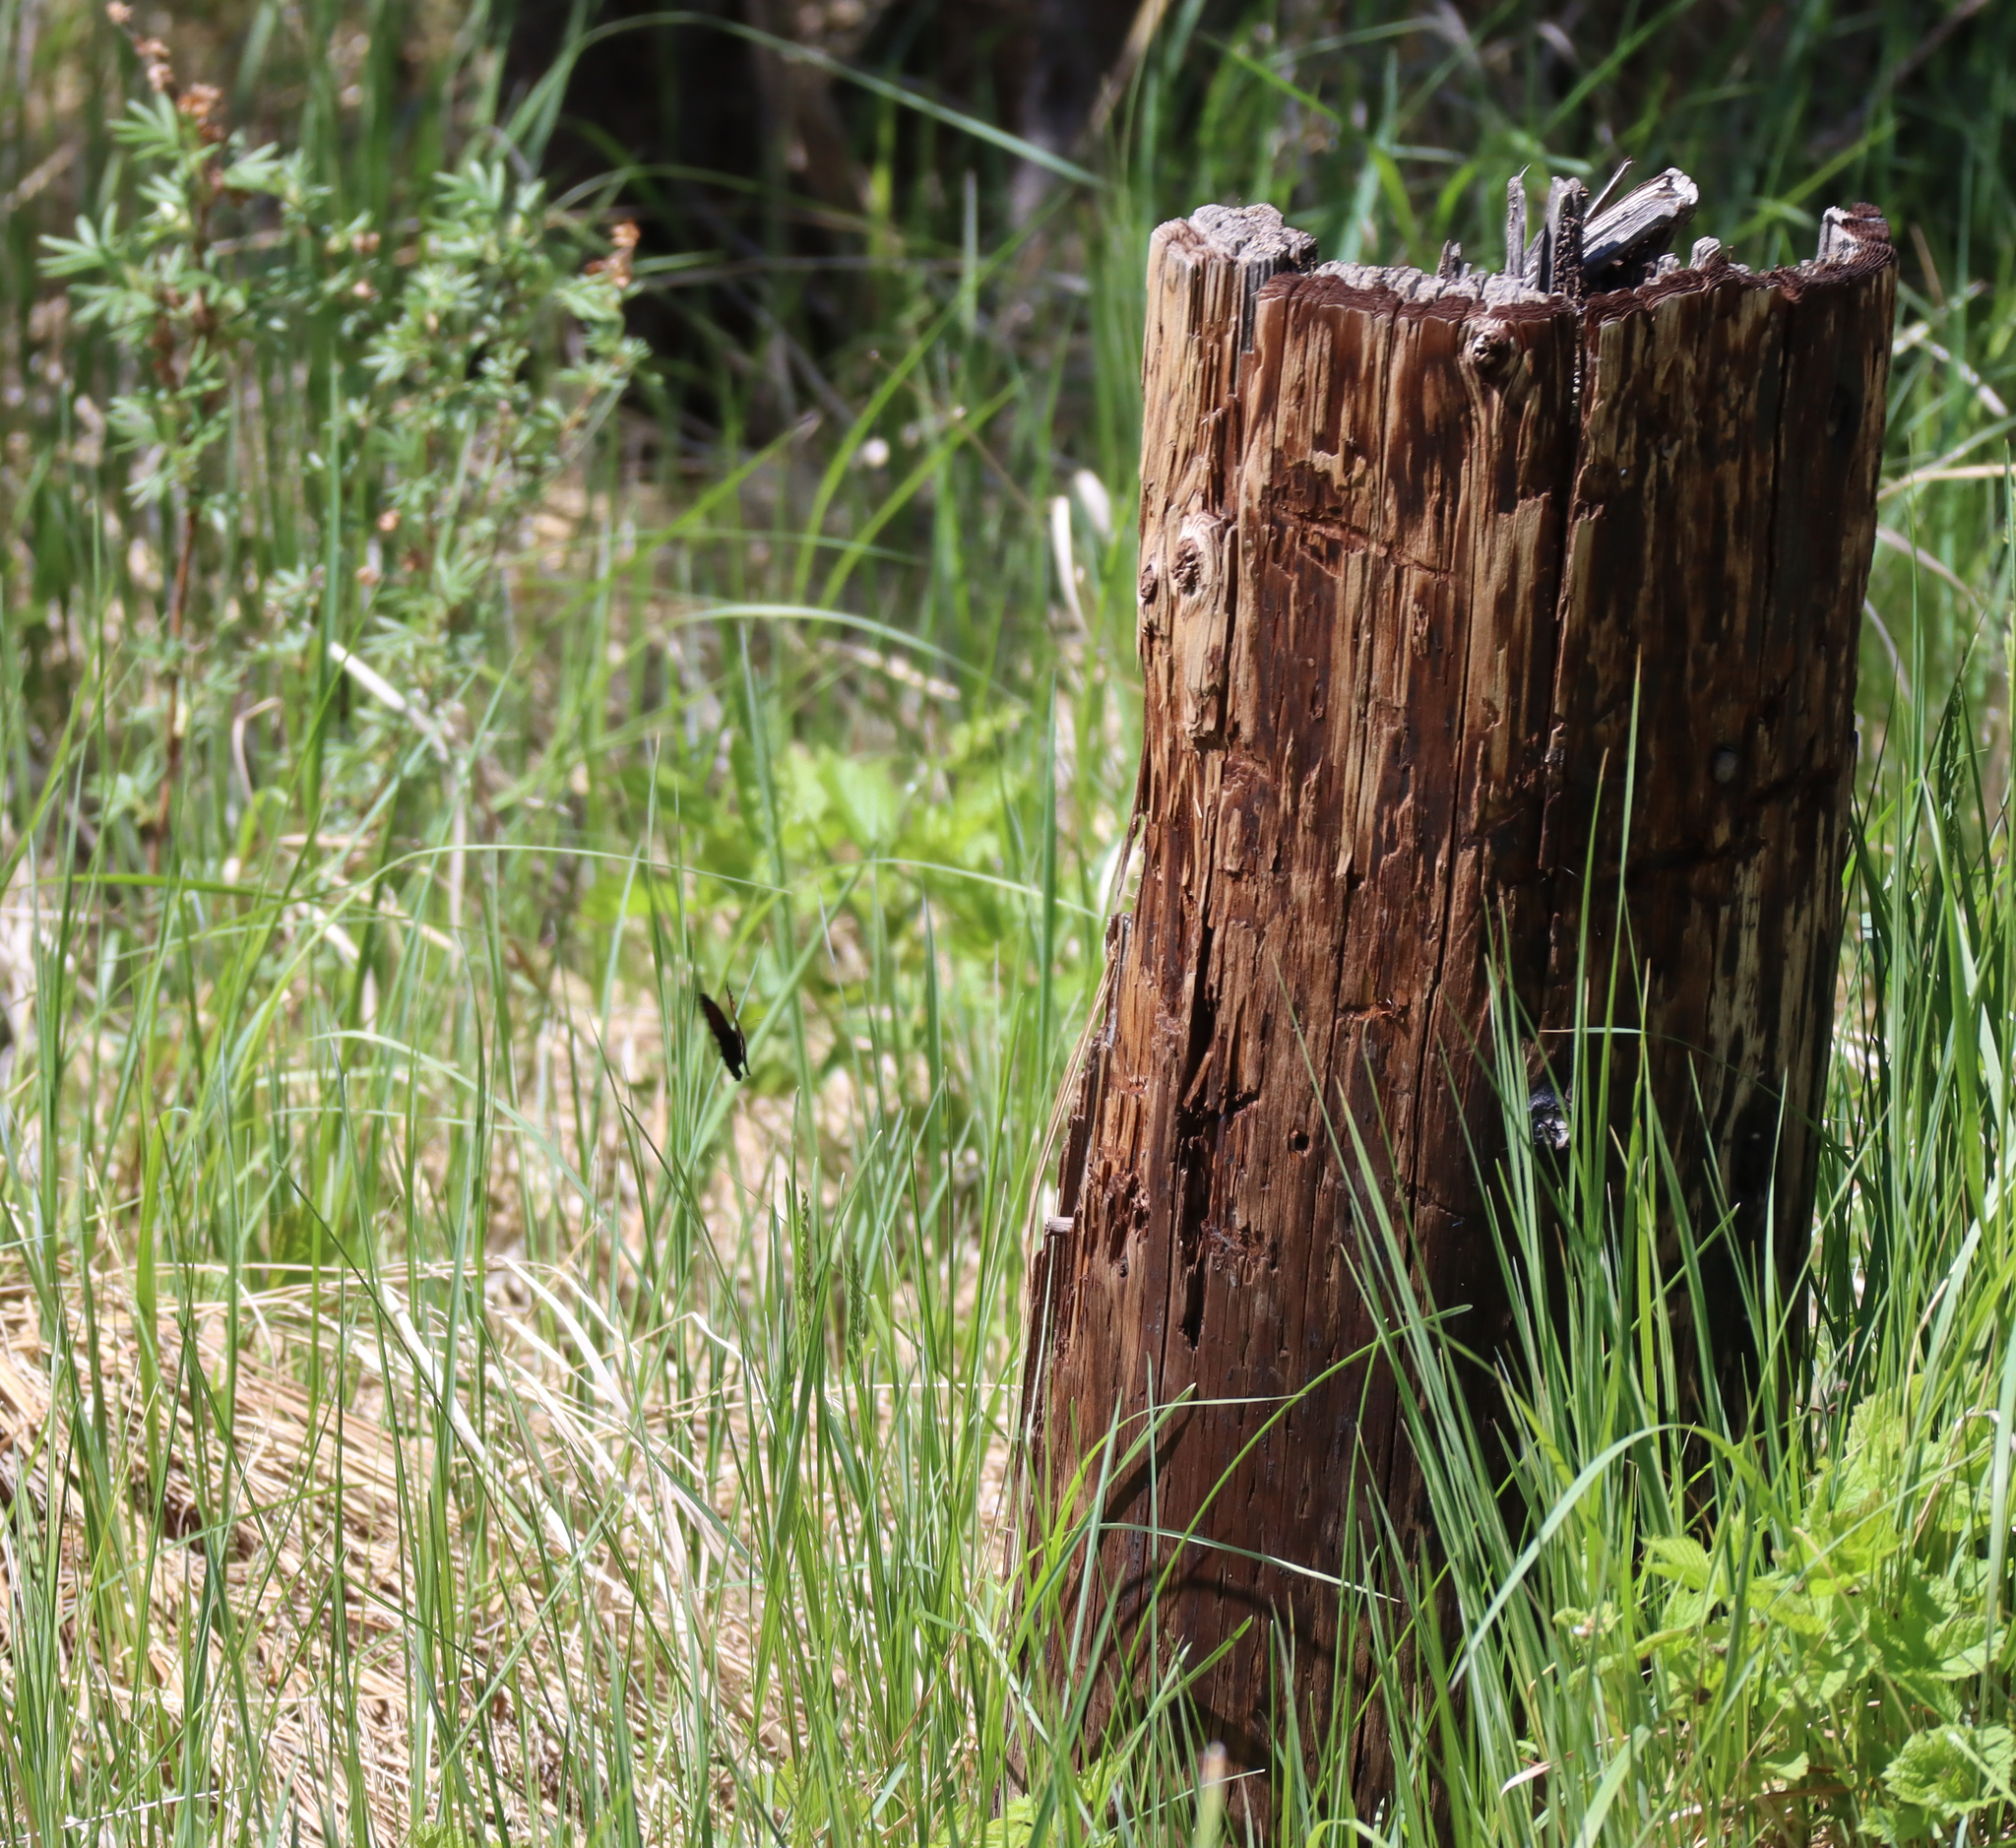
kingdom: Animalia
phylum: Arthropoda
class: Insecta
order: Lepidoptera
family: Nymphalidae
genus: Erebia
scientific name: Erebia disa
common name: Arctic ringlet
